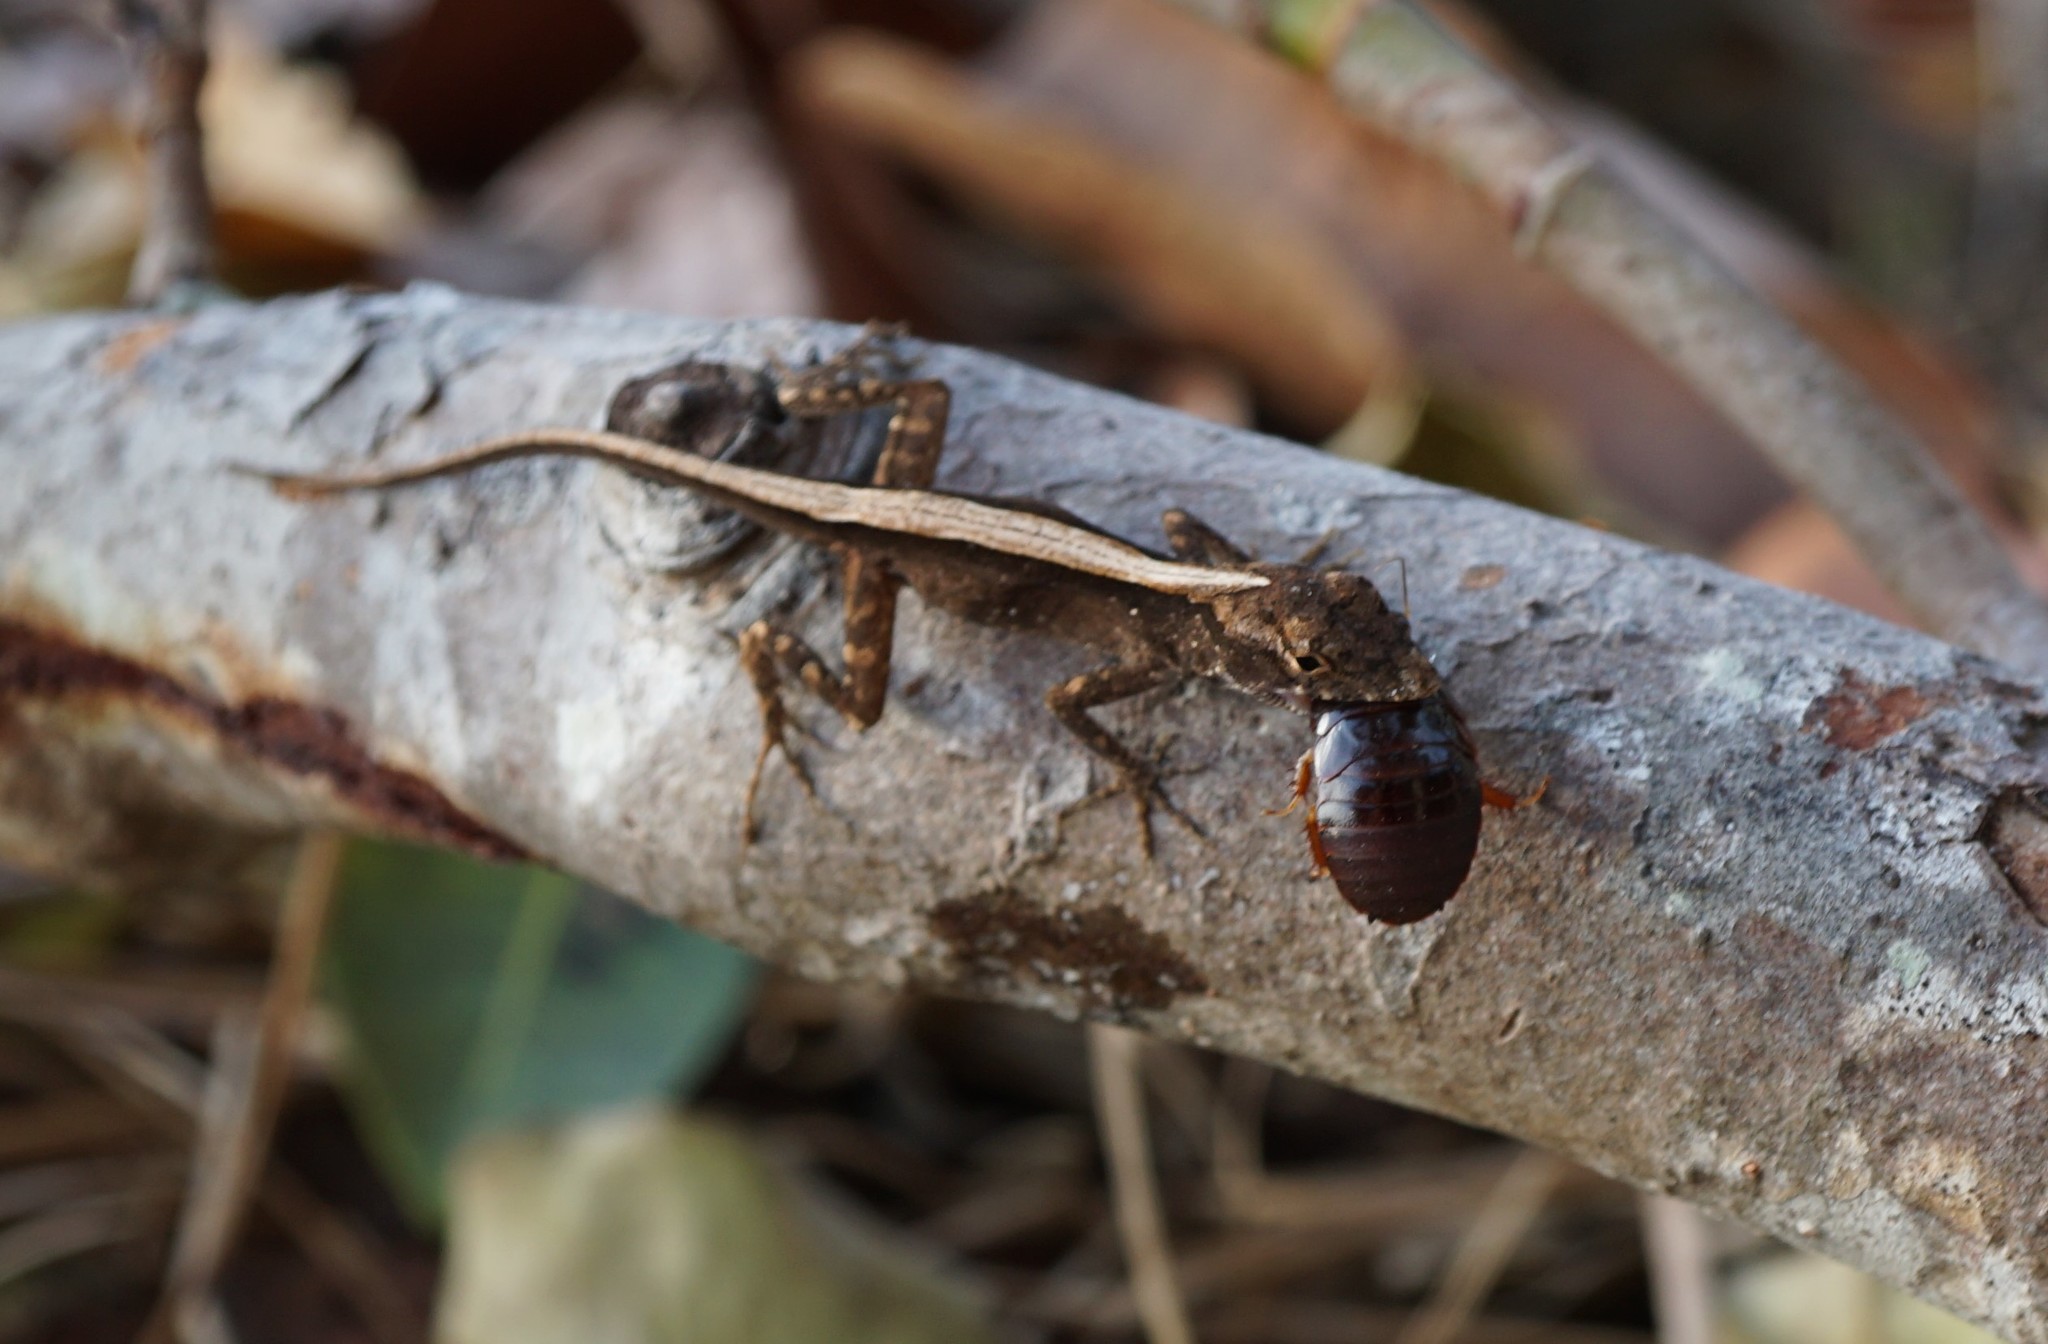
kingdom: Animalia
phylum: Chordata
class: Squamata
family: Dactyloidae
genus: Anolis
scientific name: Anolis sagrei
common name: Brown anole
